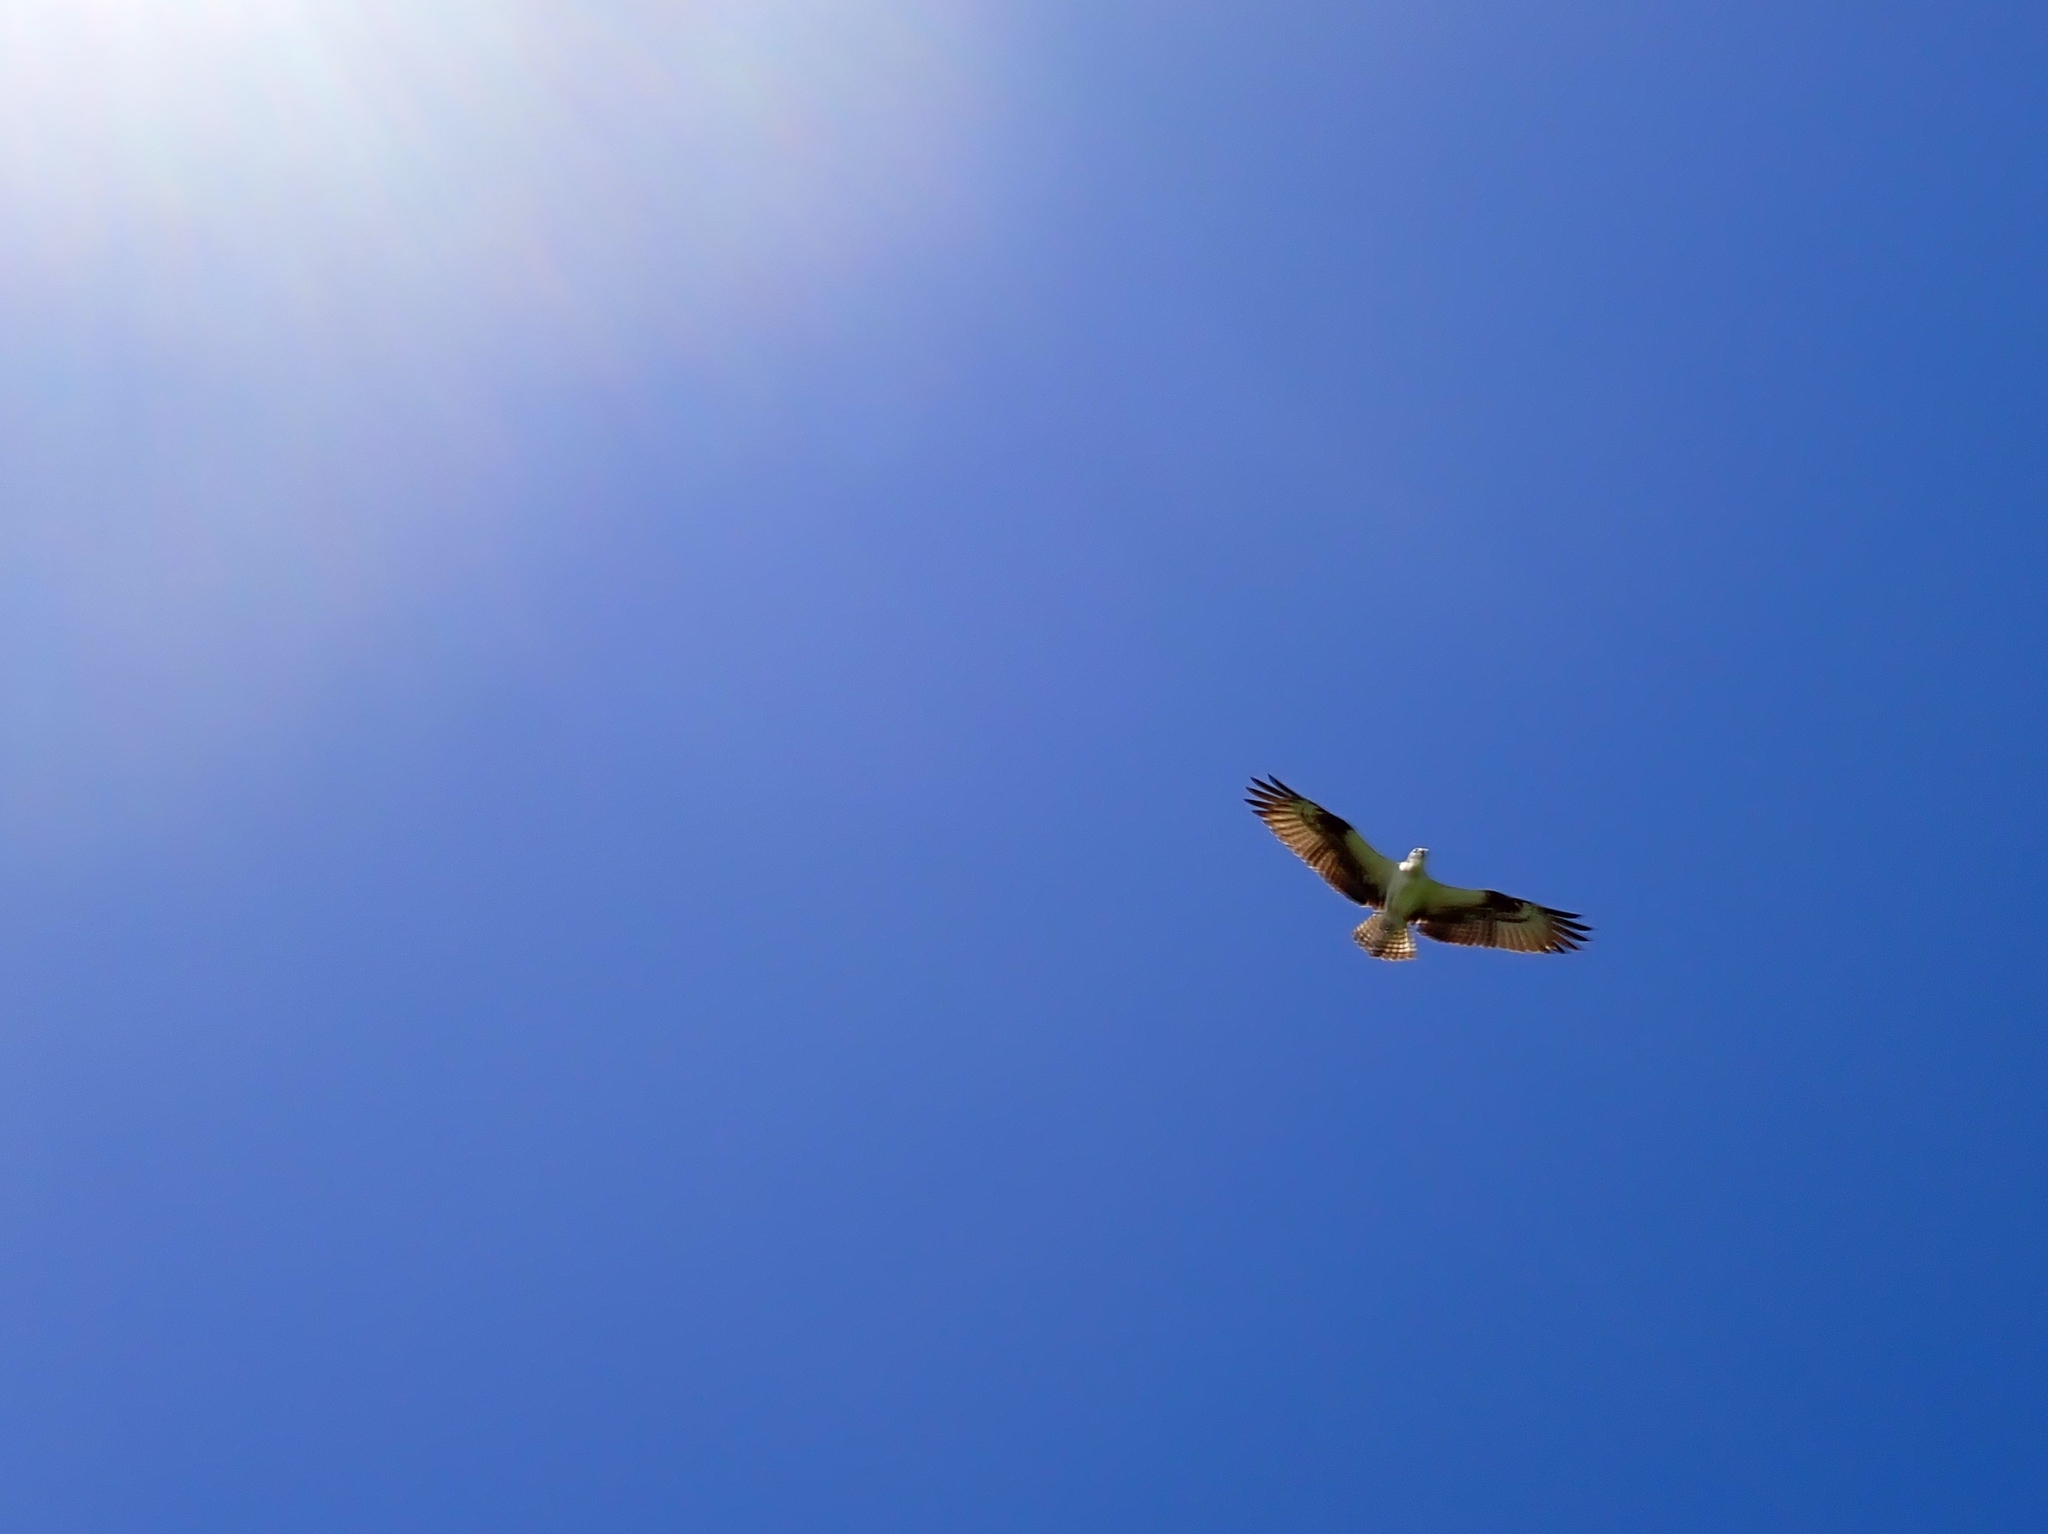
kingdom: Animalia
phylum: Chordata
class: Aves
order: Accipitriformes
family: Pandionidae
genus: Pandion
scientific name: Pandion haliaetus
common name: Osprey
